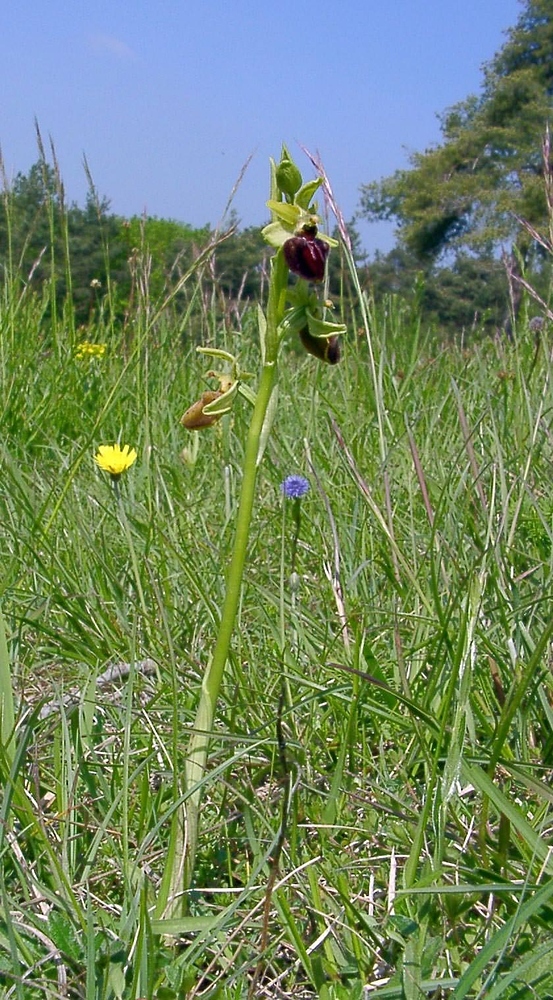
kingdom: Plantae
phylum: Tracheophyta
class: Liliopsida
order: Asparagales
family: Orchidaceae
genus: Ophrys
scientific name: Ophrys sphegodes
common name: Early spider-orchid
